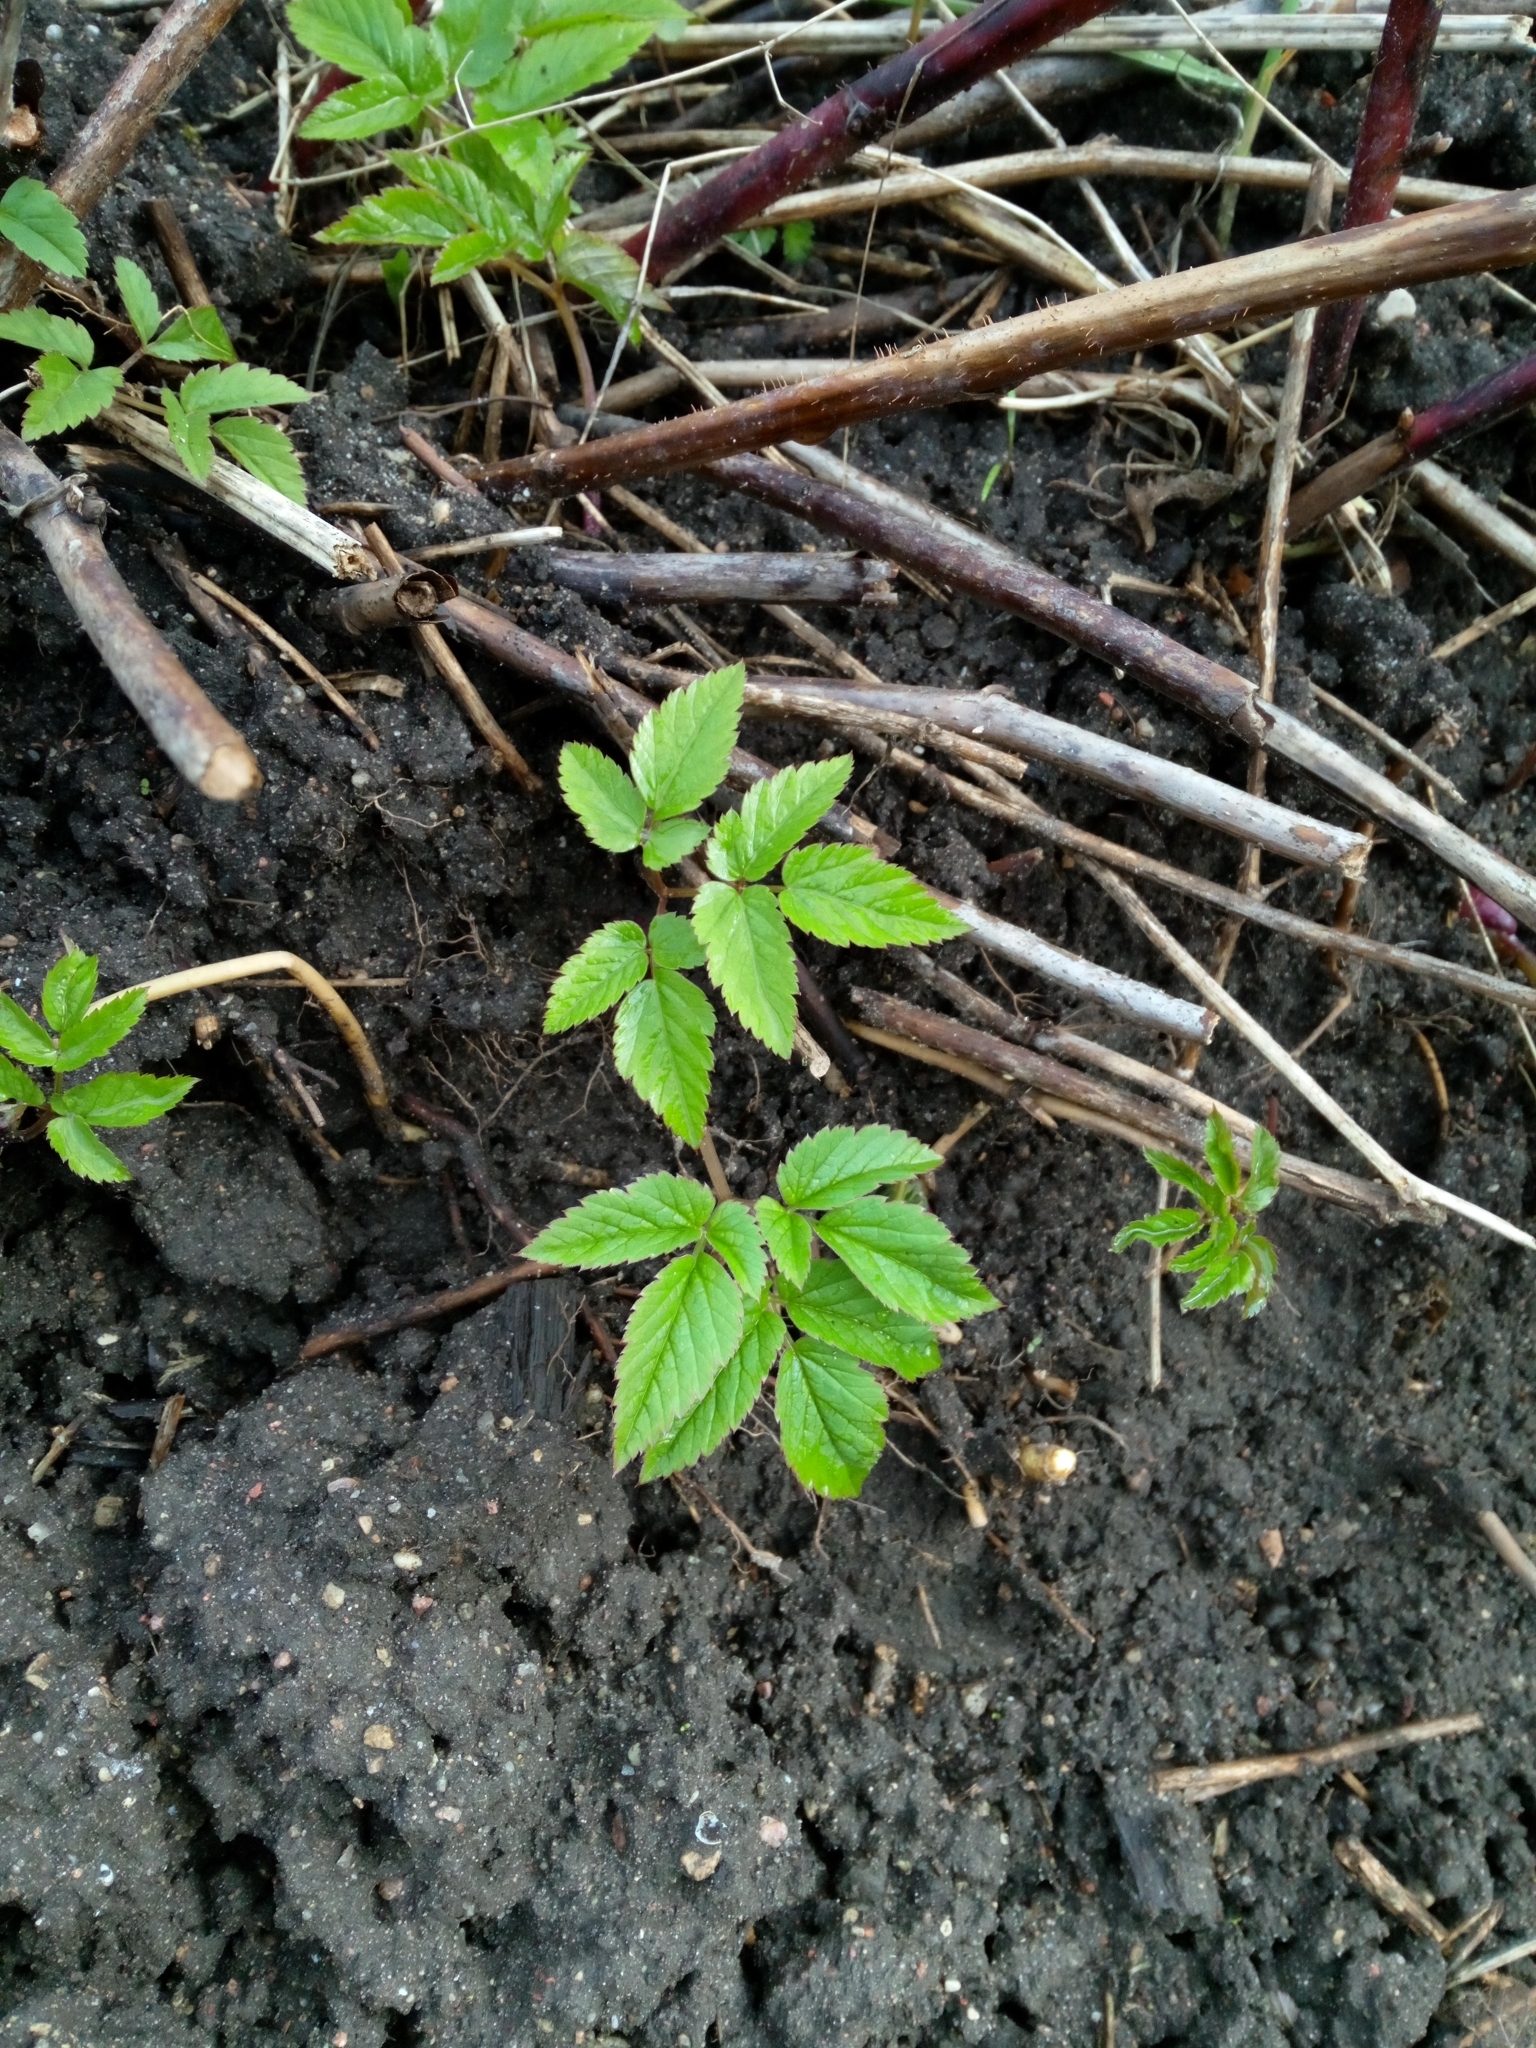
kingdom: Plantae
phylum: Tracheophyta
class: Magnoliopsida
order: Apiales
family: Apiaceae
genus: Aegopodium
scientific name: Aegopodium podagraria
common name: Ground-elder
